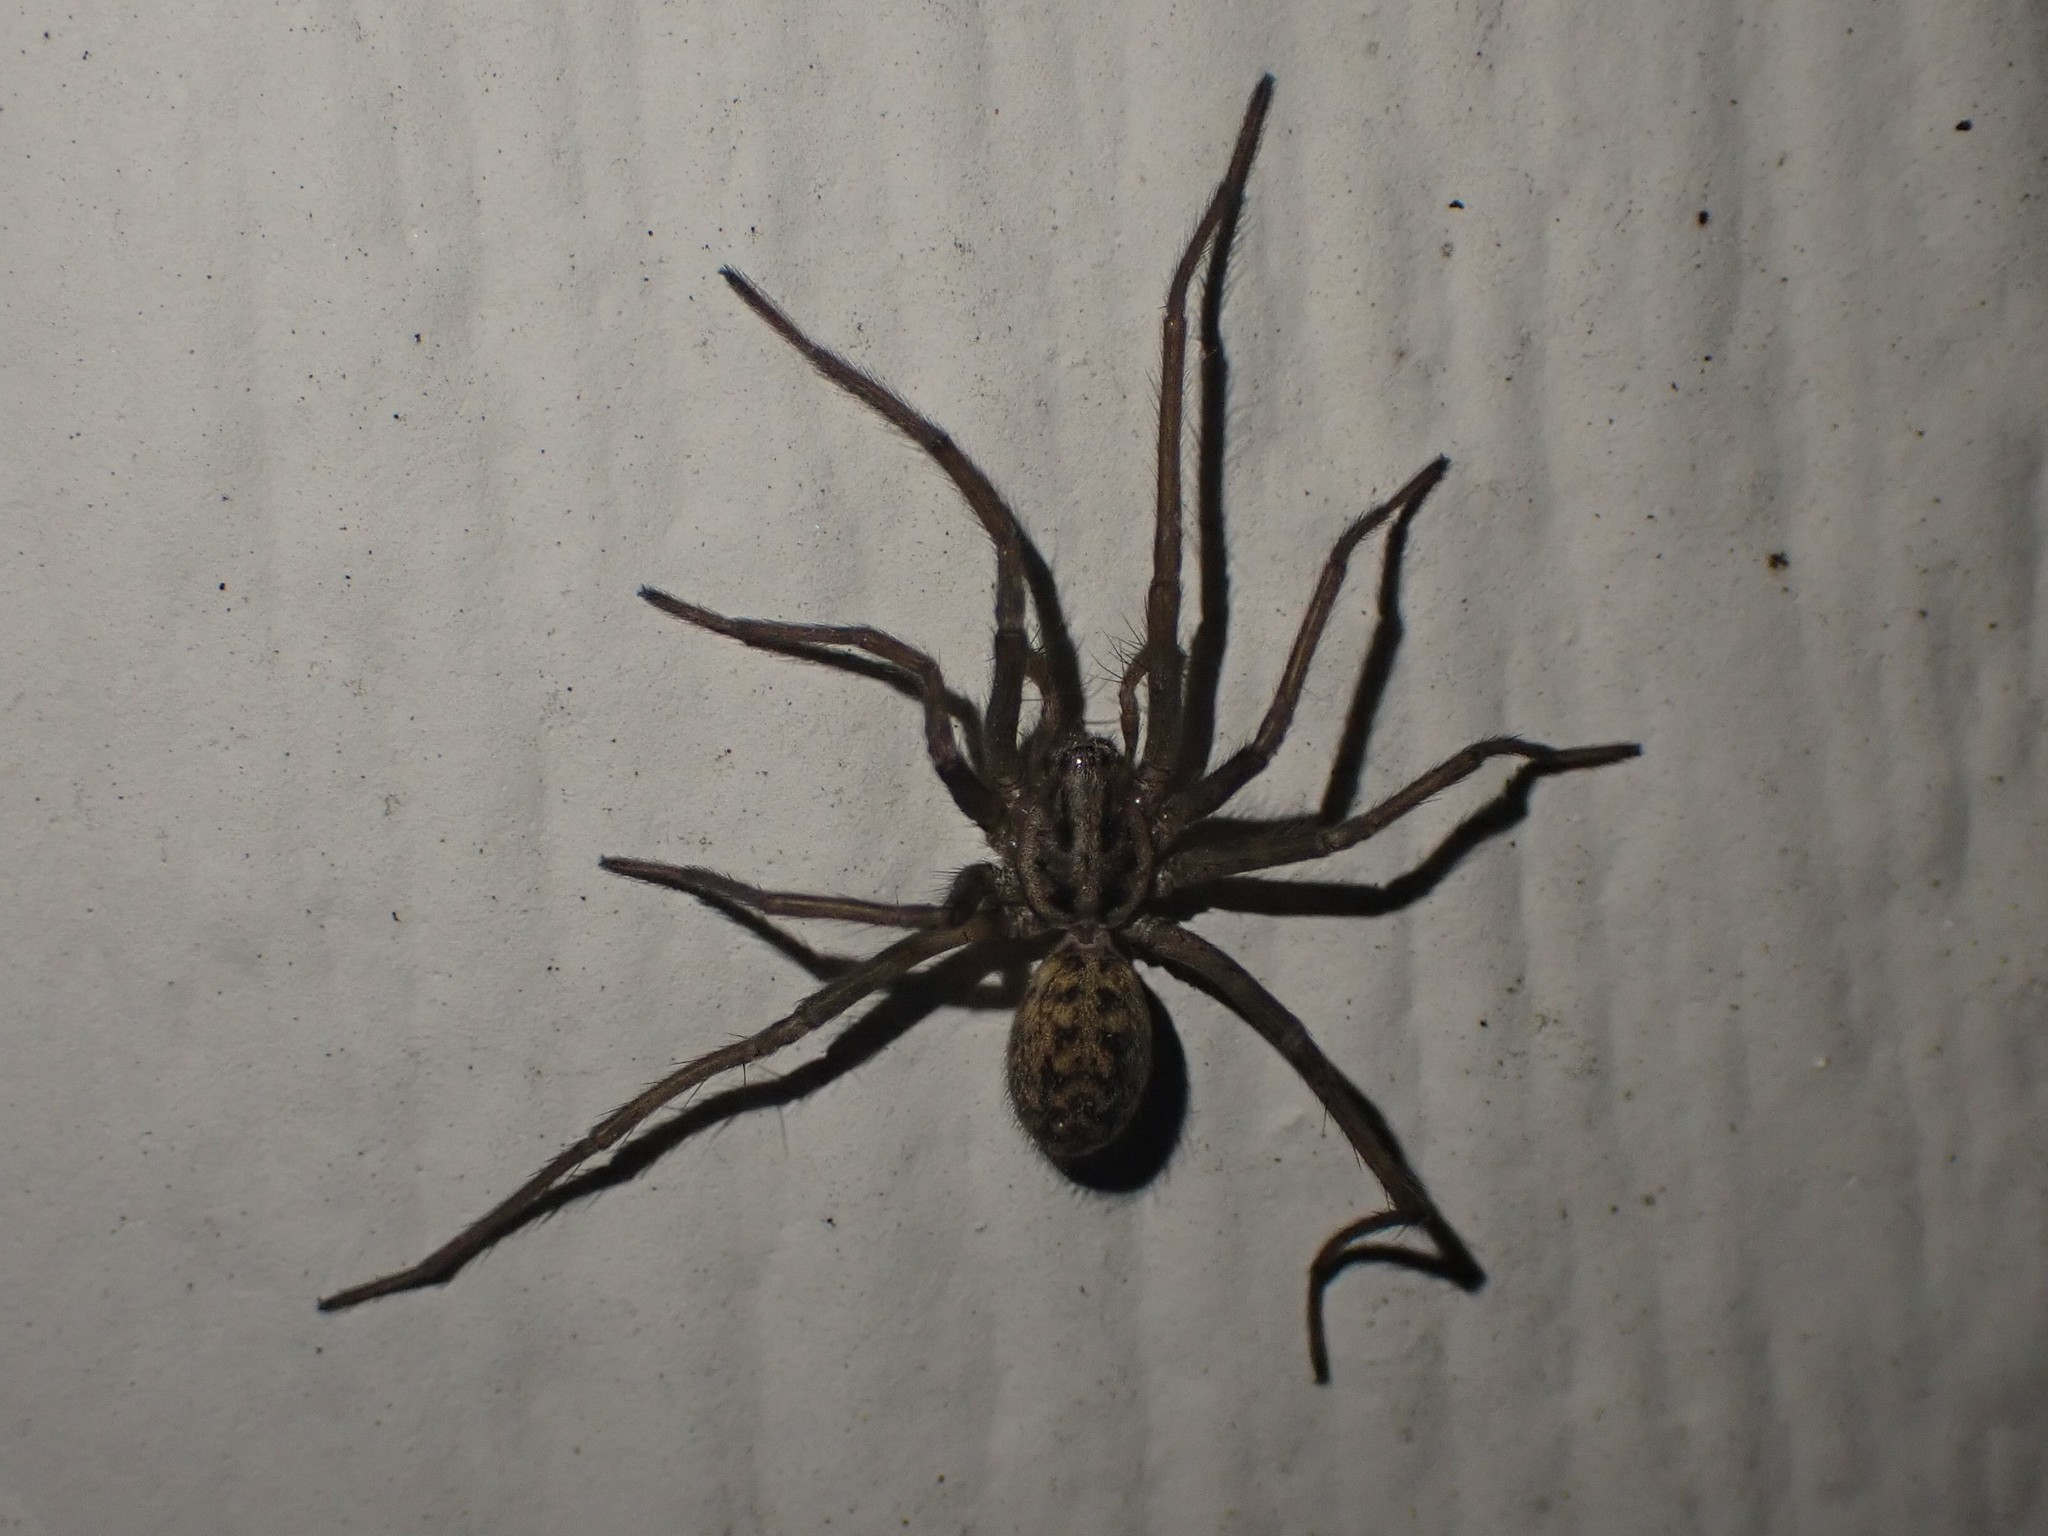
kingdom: Animalia
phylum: Arthropoda
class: Arachnida
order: Araneae
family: Agelenidae
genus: Eratigena
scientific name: Eratigena duellica
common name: Giant house spider
